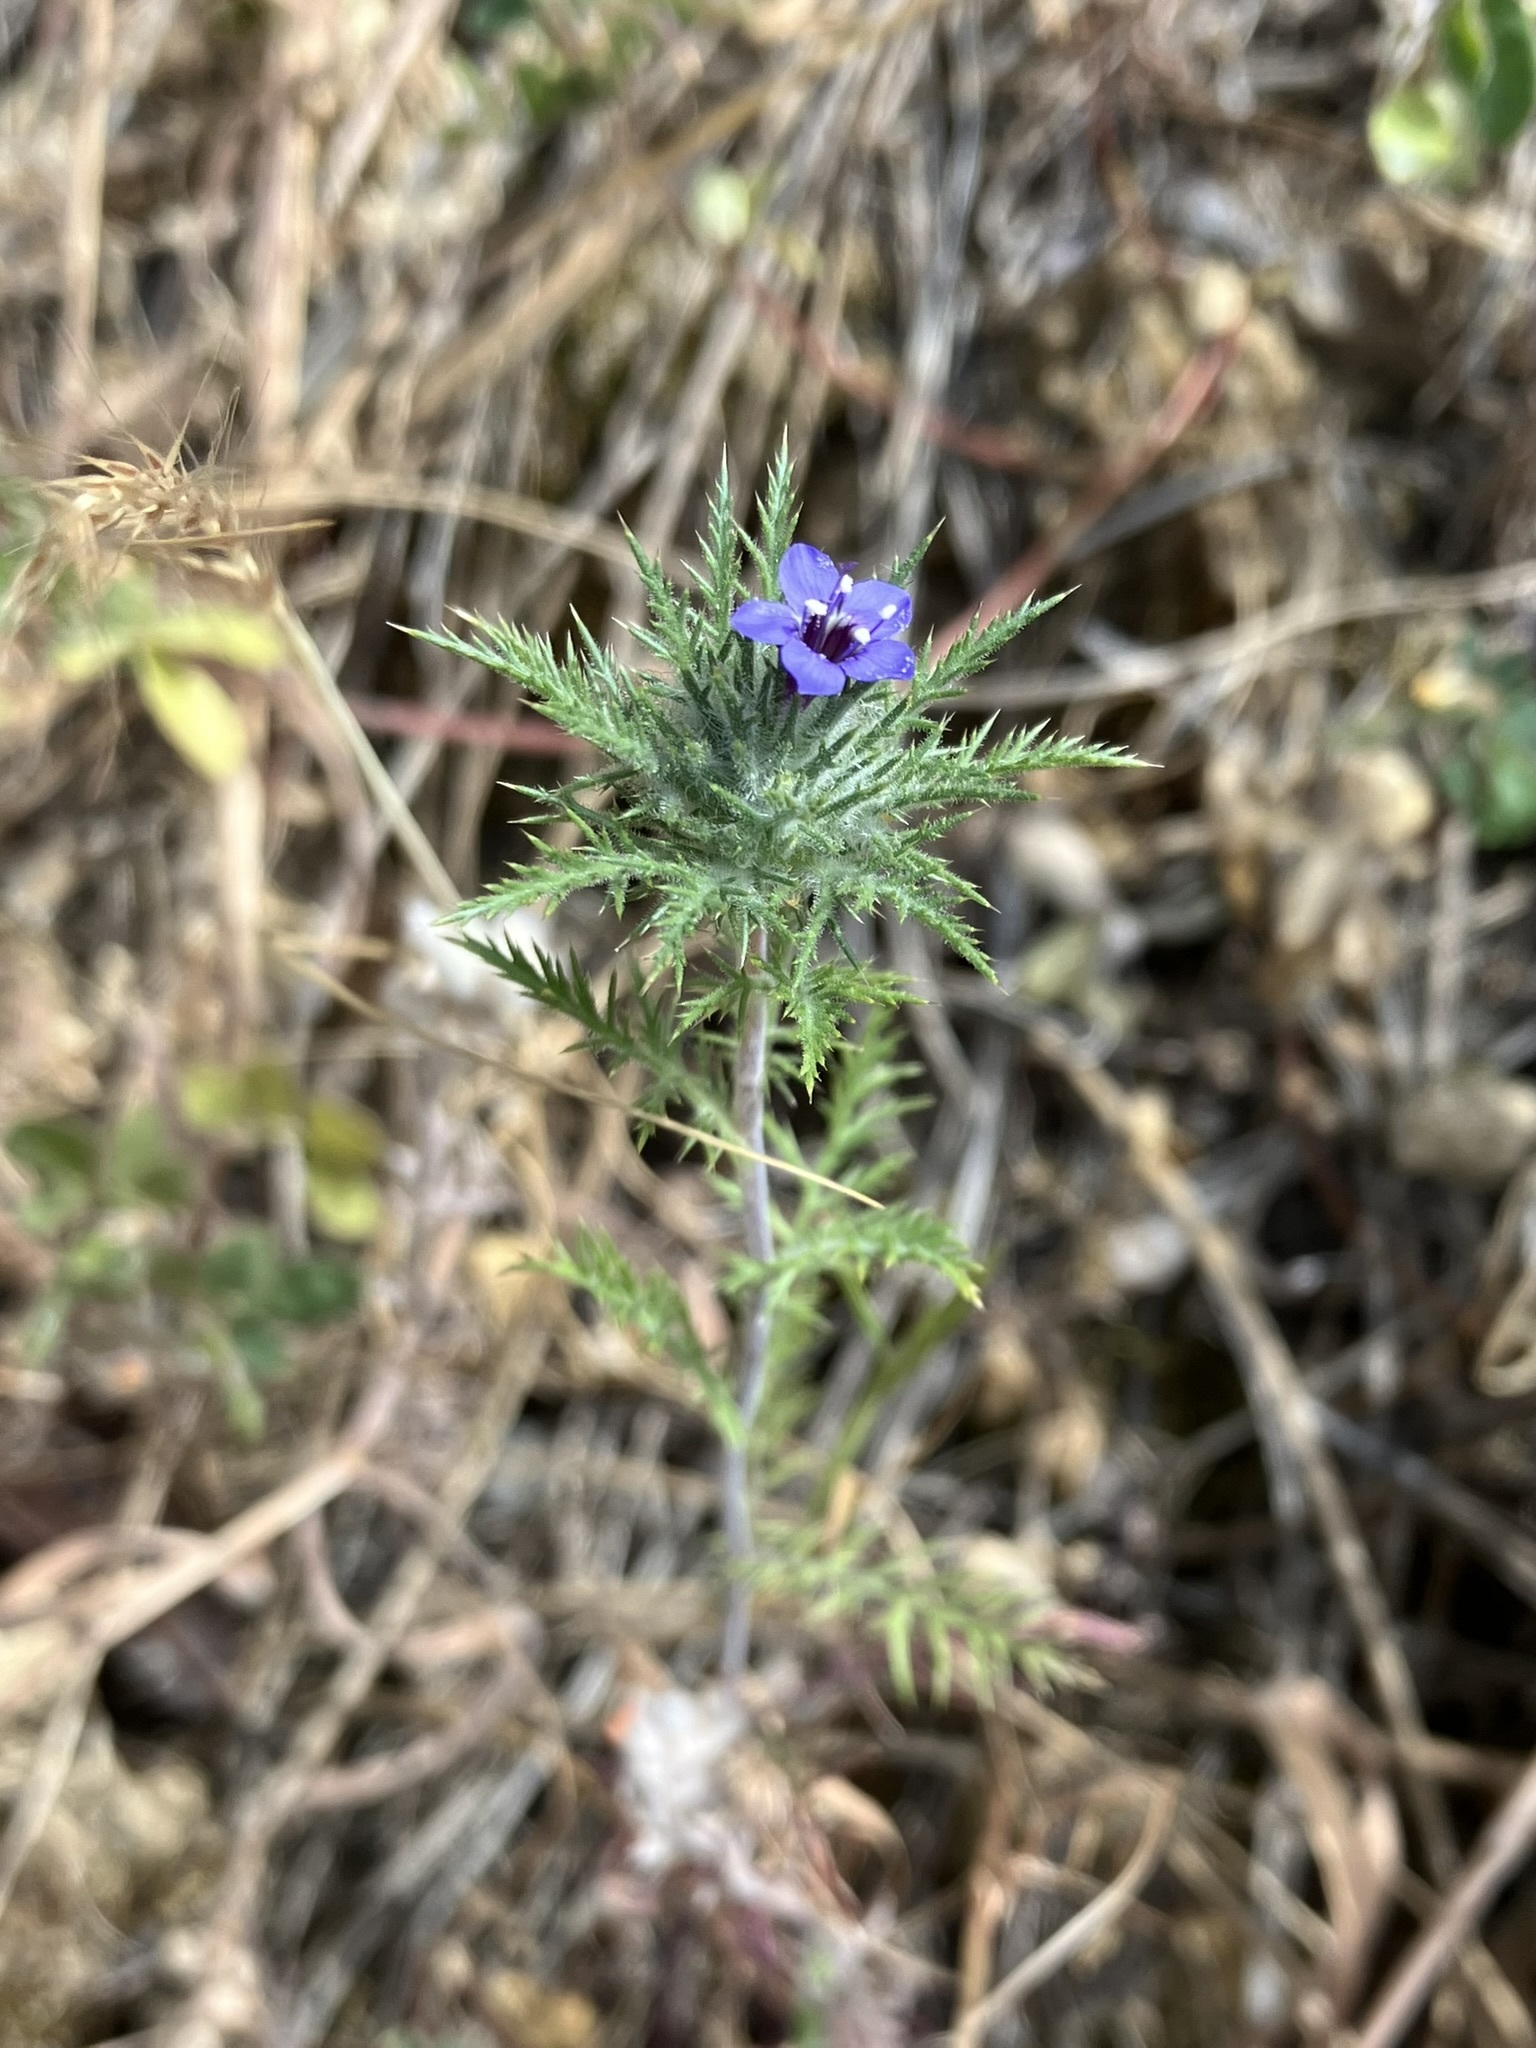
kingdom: Plantae
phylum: Tracheophyta
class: Magnoliopsida
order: Ericales
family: Polemoniaceae
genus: Navarretia
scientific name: Navarretia pubescens
